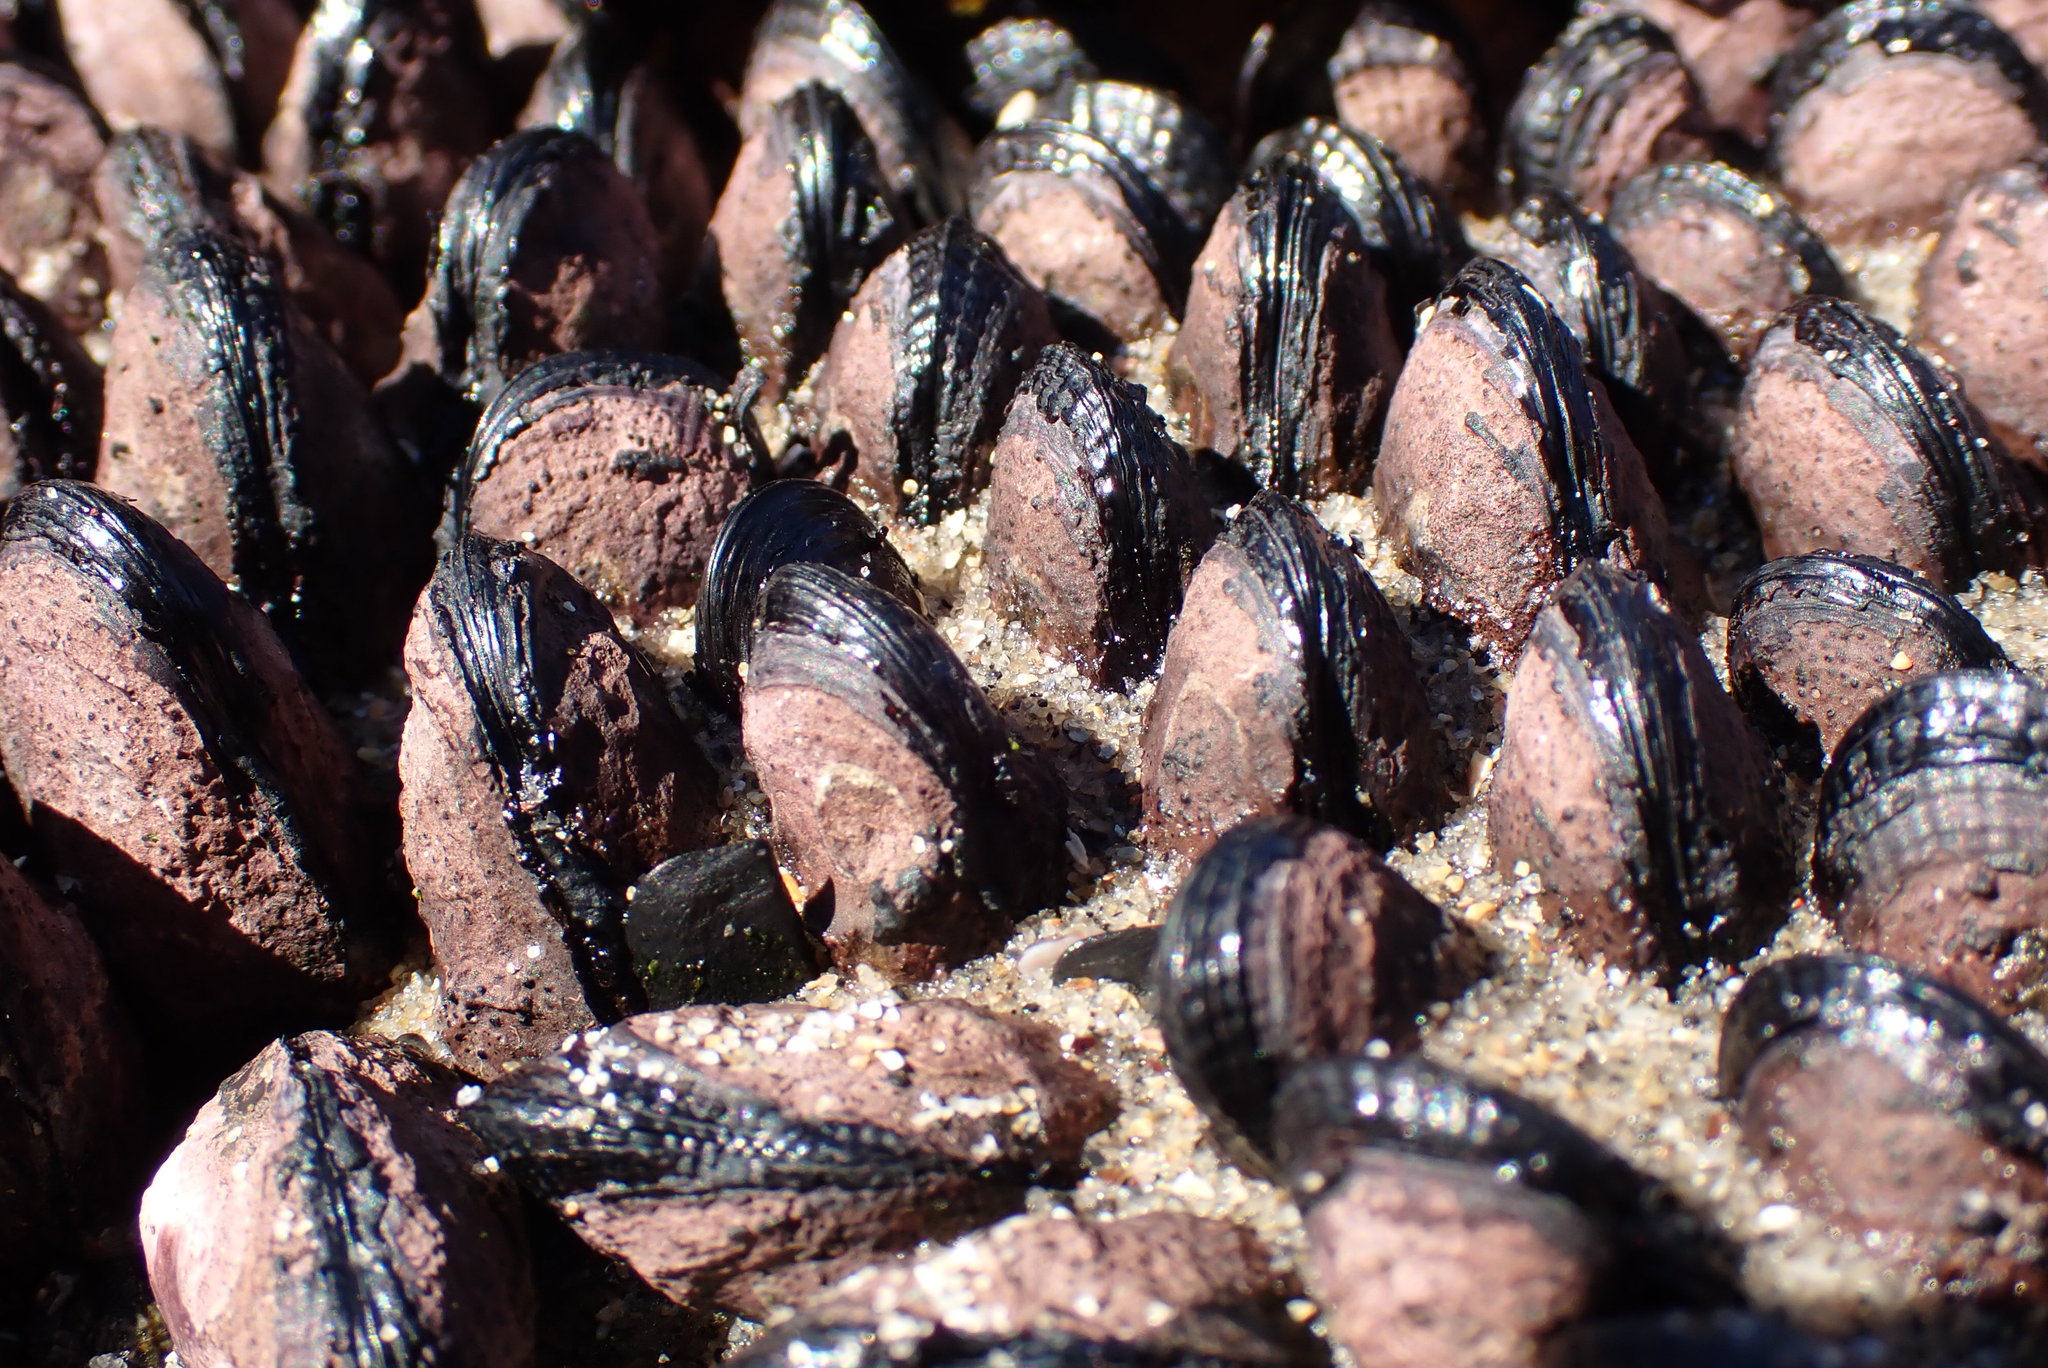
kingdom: Animalia
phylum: Mollusca
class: Bivalvia
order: Mytilida
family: Mytilidae
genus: Perumytilus
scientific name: Perumytilus purpuratus
